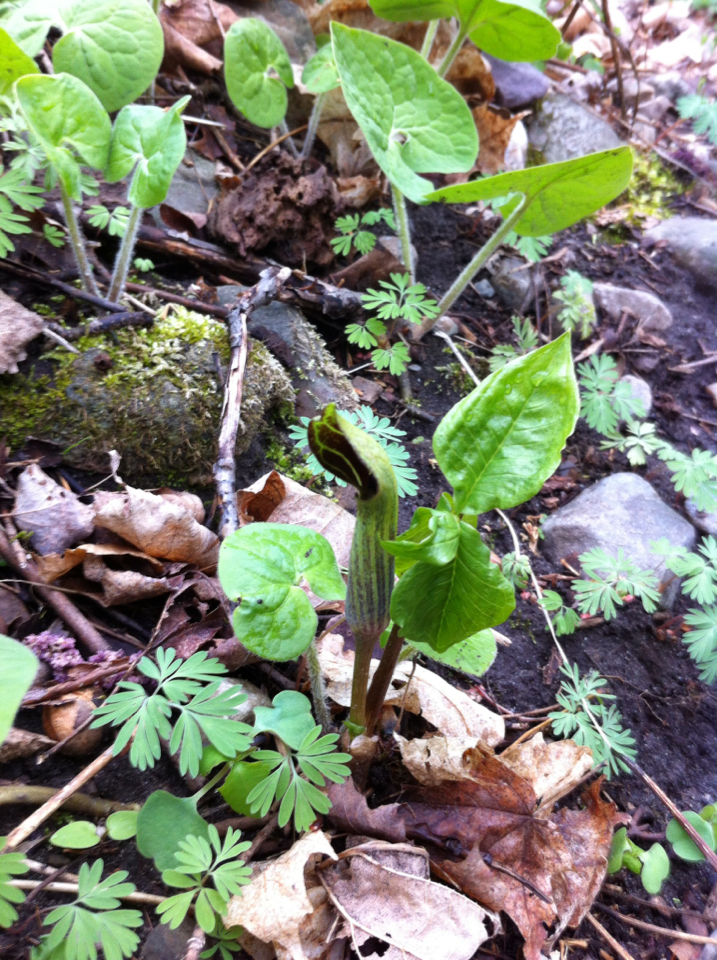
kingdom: Plantae
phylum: Tracheophyta
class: Liliopsida
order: Alismatales
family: Araceae
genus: Arisaema
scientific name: Arisaema triphyllum
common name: Jack-in-the-pulpit
